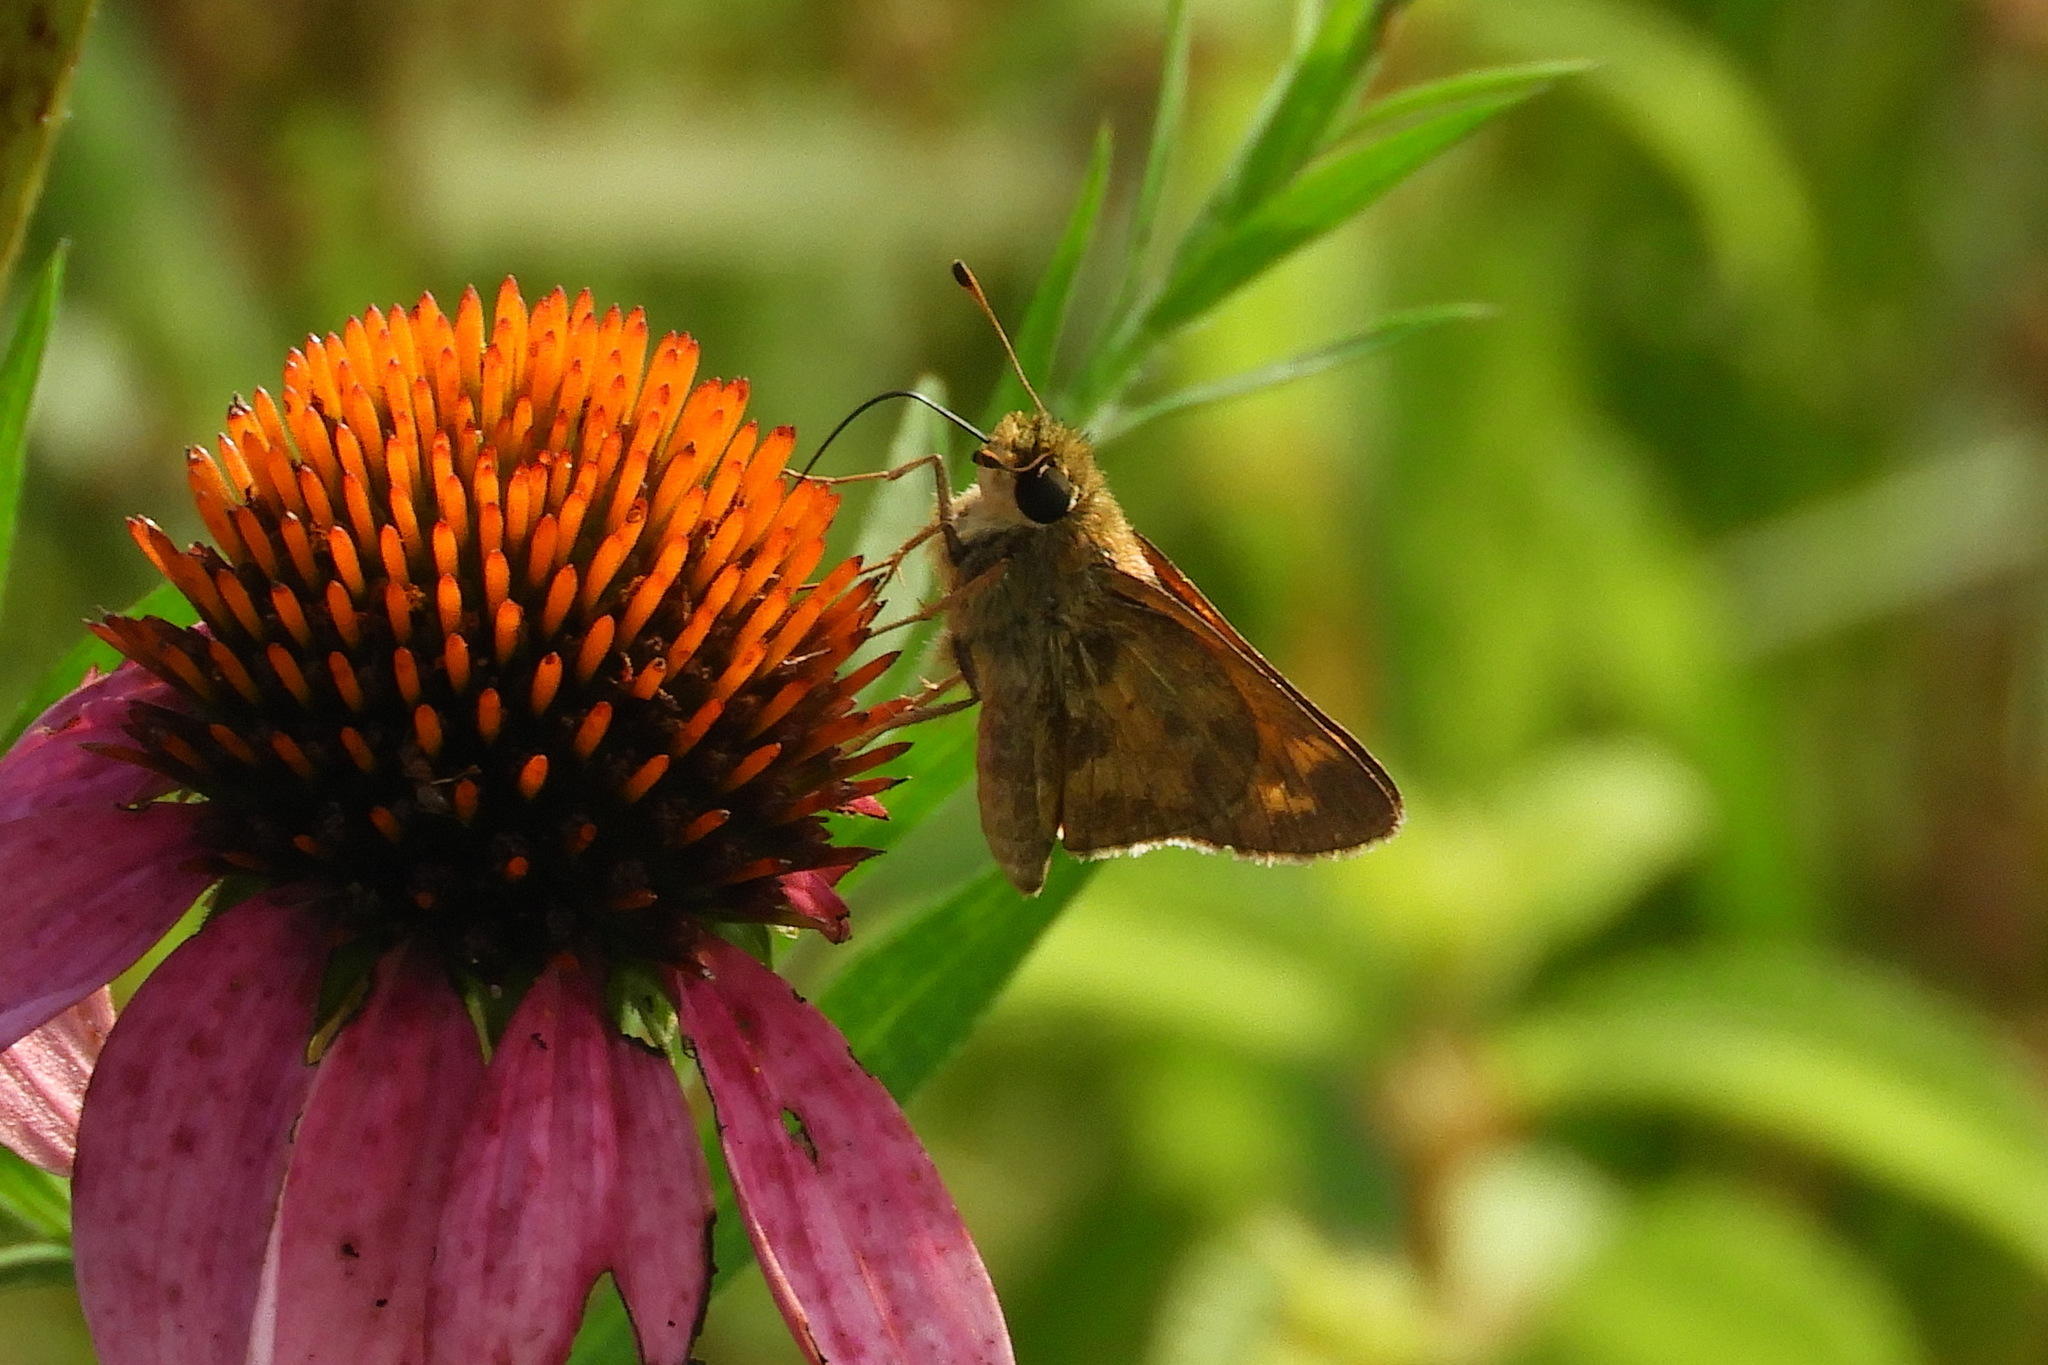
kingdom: Animalia
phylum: Arthropoda
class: Insecta
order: Lepidoptera
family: Hesperiidae
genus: Atalopedes
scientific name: Atalopedes
